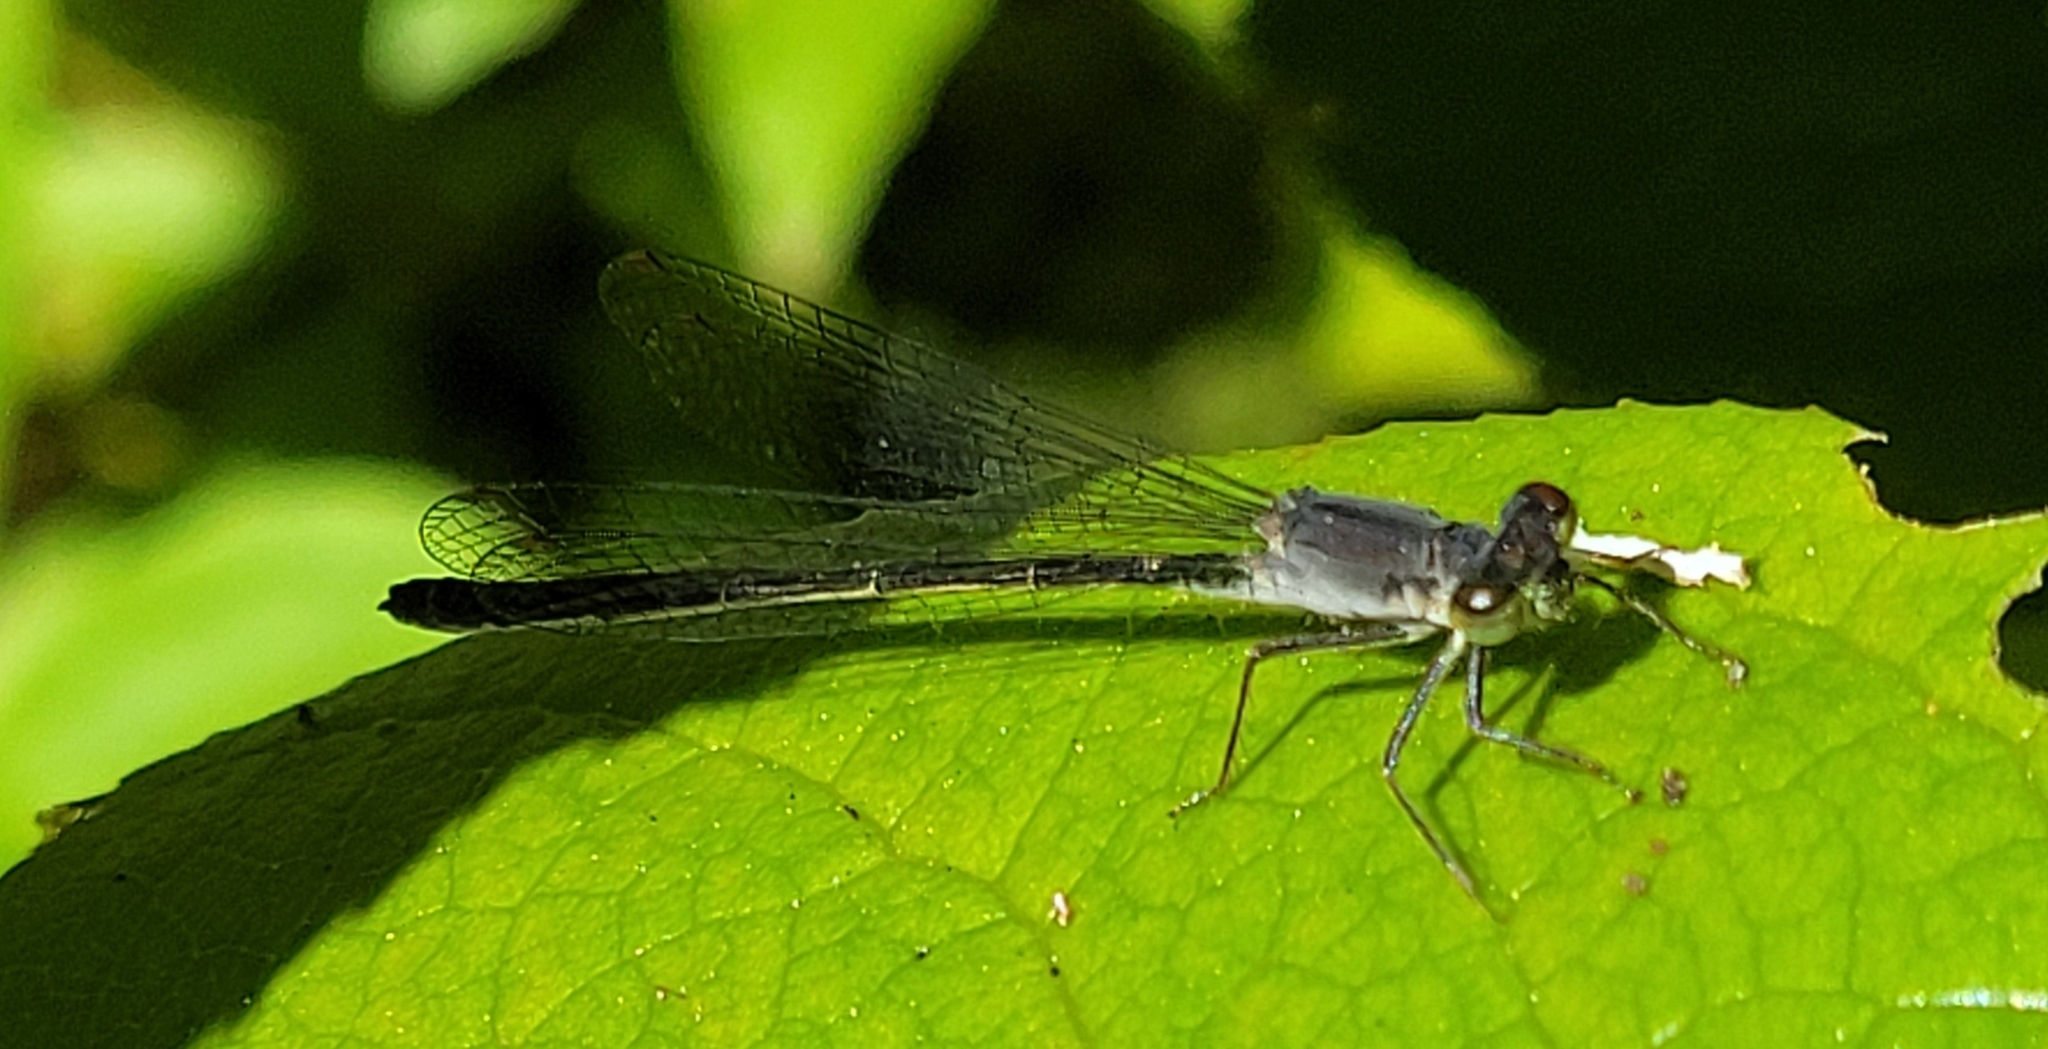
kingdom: Animalia
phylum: Arthropoda
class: Insecta
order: Odonata
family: Coenagrionidae
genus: Ischnura
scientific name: Ischnura cervula
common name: Pacific forktail
